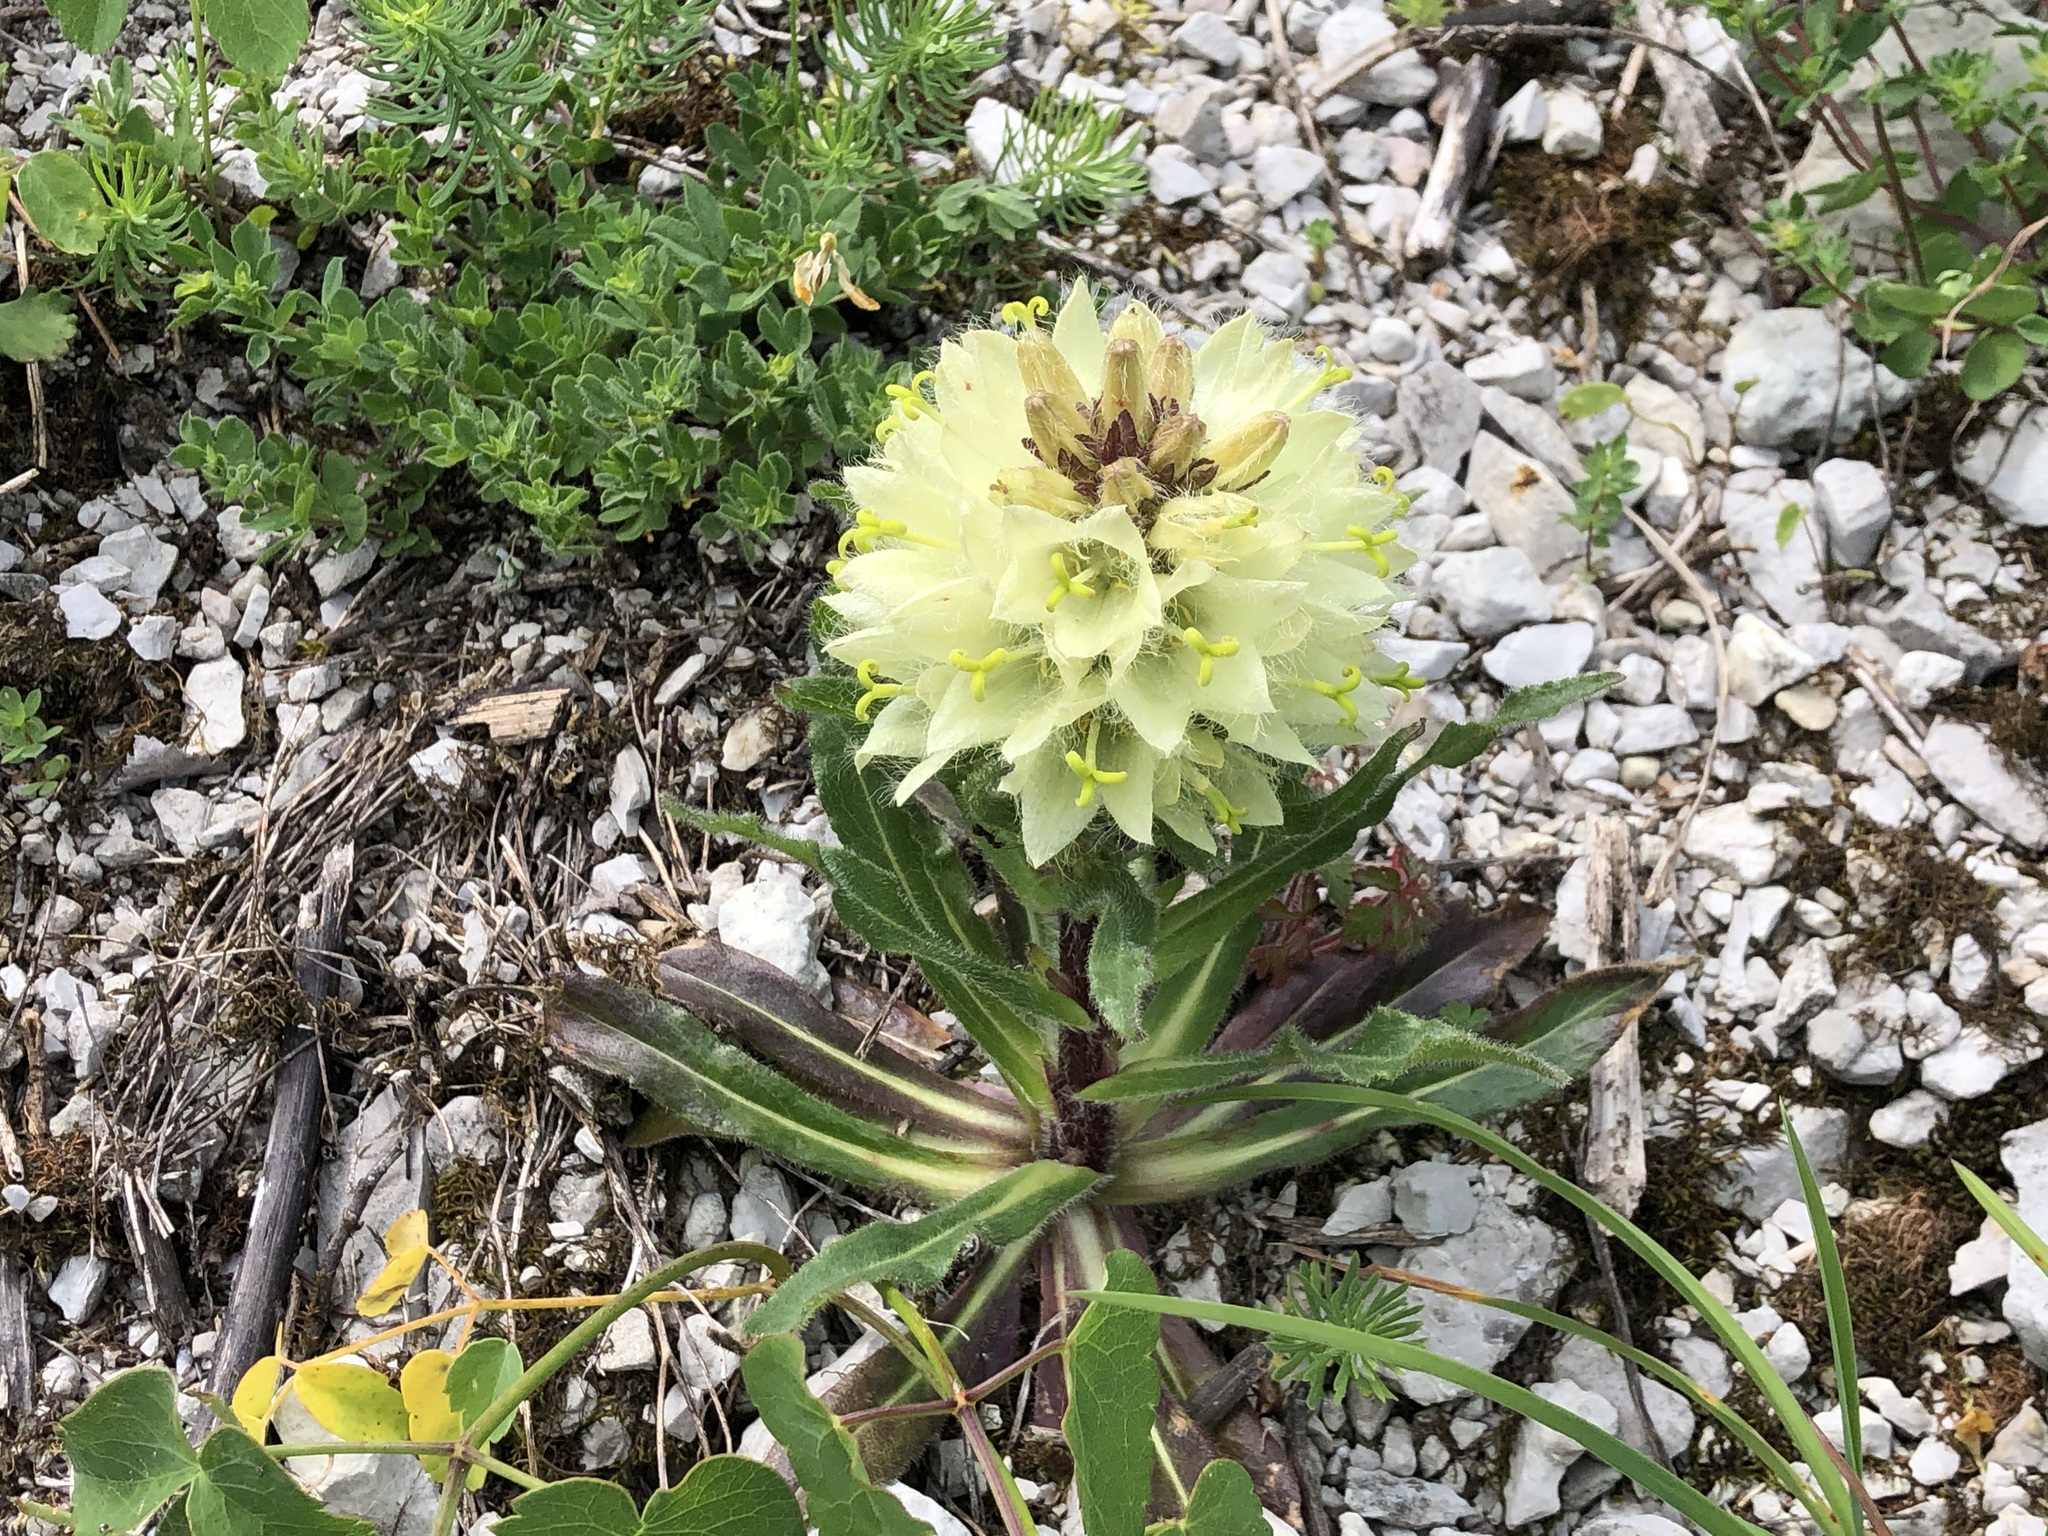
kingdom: Plantae
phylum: Tracheophyta
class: Magnoliopsida
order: Asterales
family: Campanulaceae
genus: Campanula
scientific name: Campanula thyrsoides
